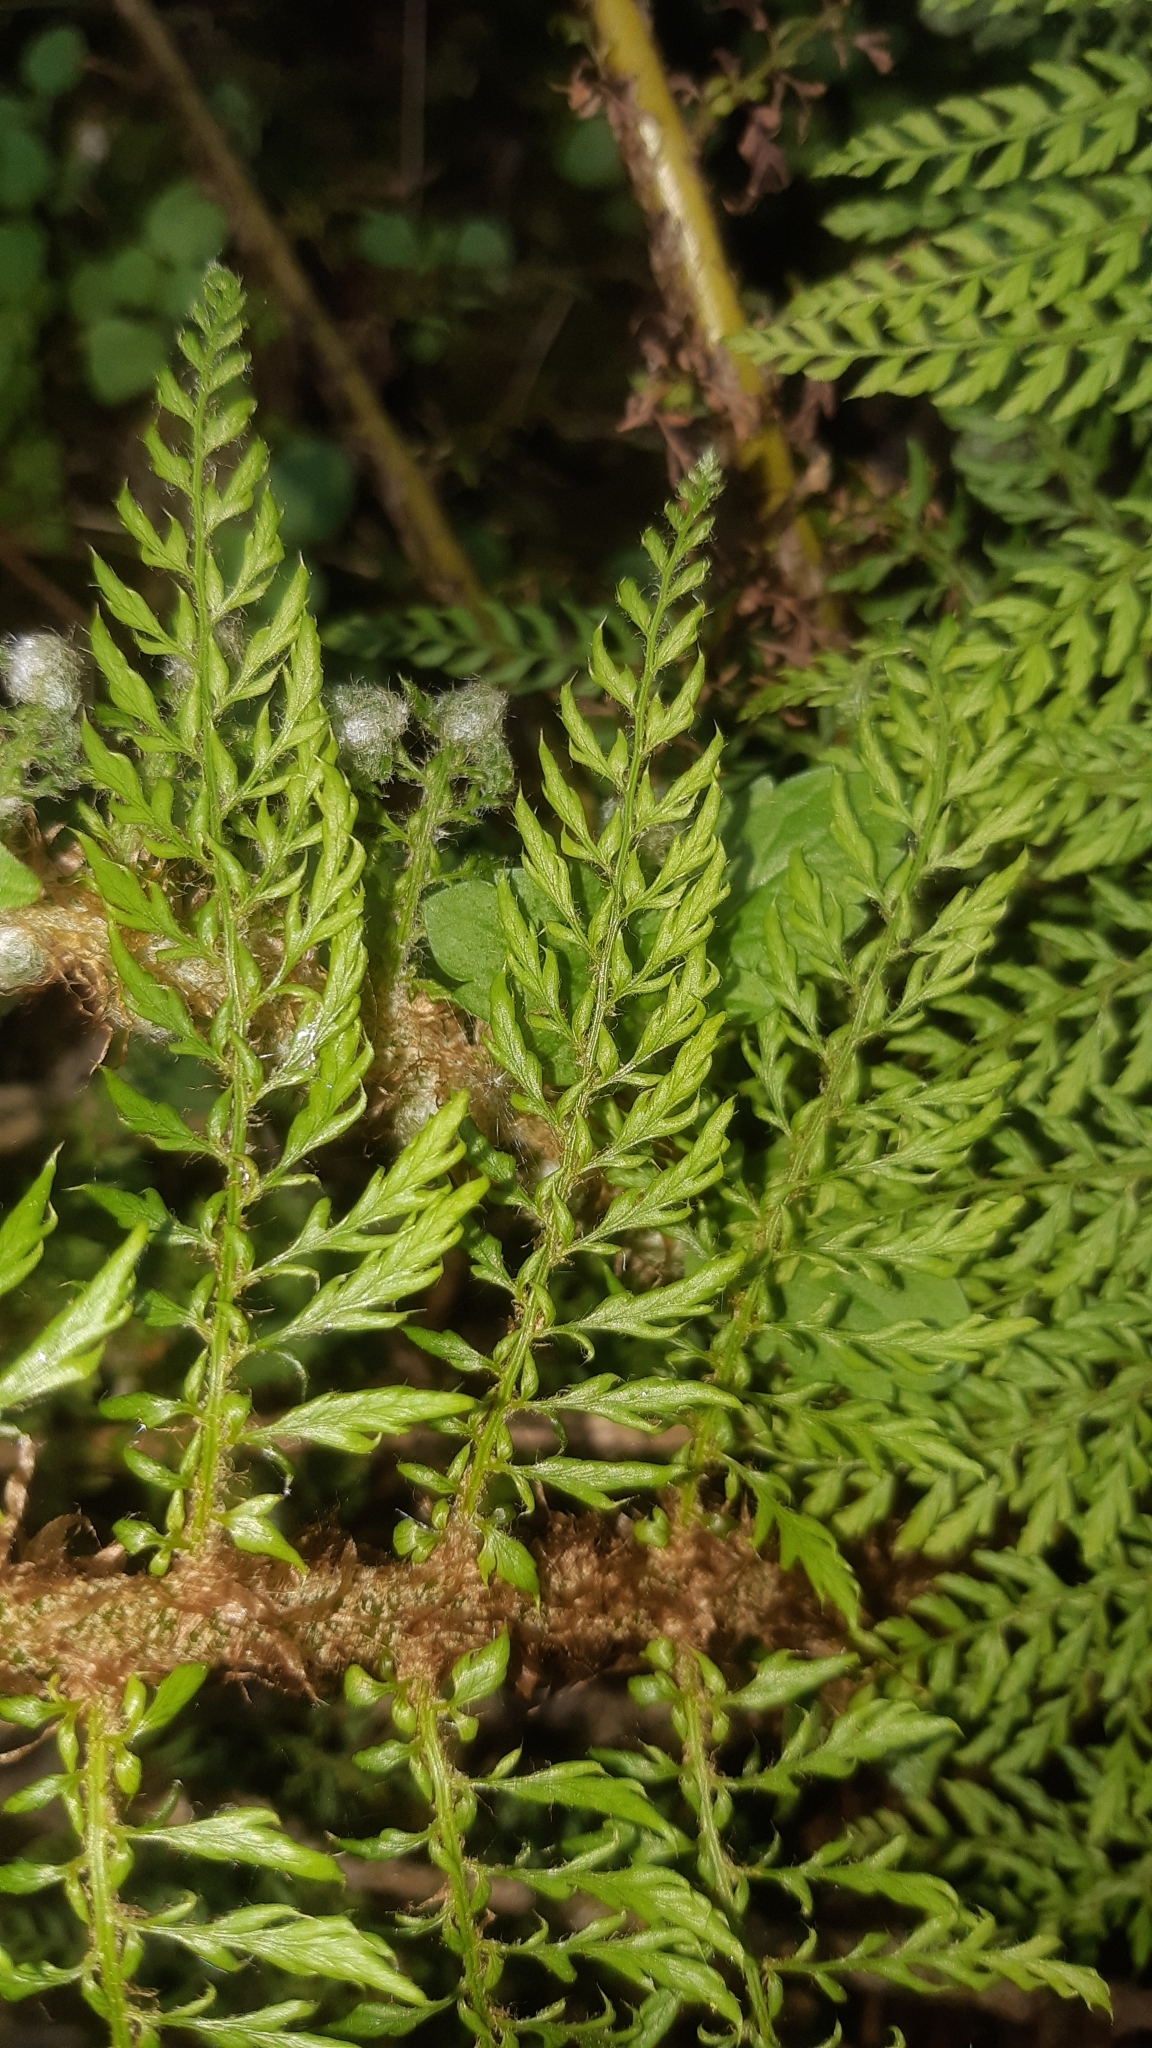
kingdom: Plantae
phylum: Tracheophyta
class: Polypodiopsida
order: Polypodiales
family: Dryopteridaceae
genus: Polystichum
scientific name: Polystichum setiferum
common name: Soft shield-fern
